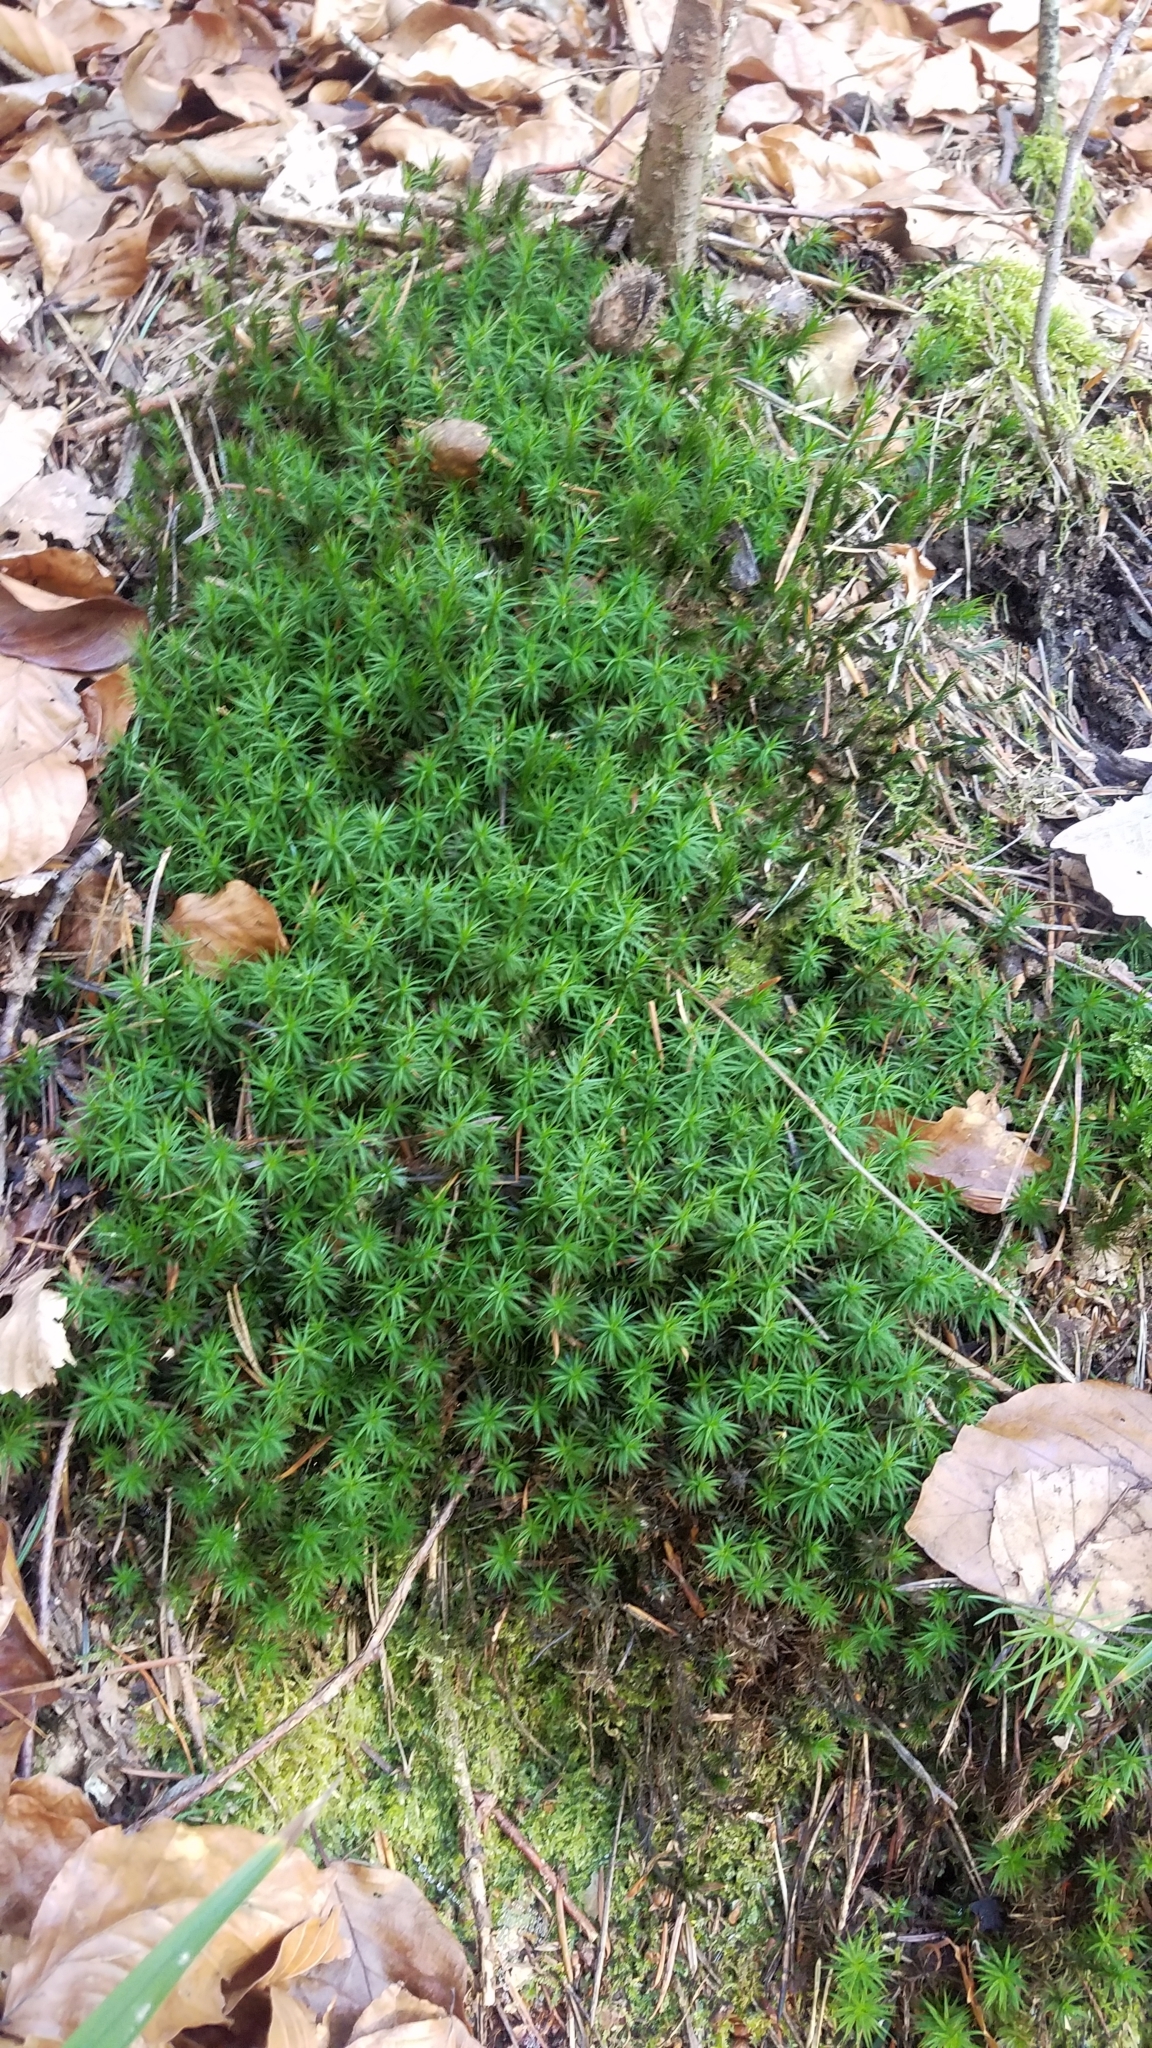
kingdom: Plantae
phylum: Bryophyta
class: Polytrichopsida
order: Polytrichales
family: Polytrichaceae
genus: Polytrichum
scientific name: Polytrichum formosum
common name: Bank haircap moss
